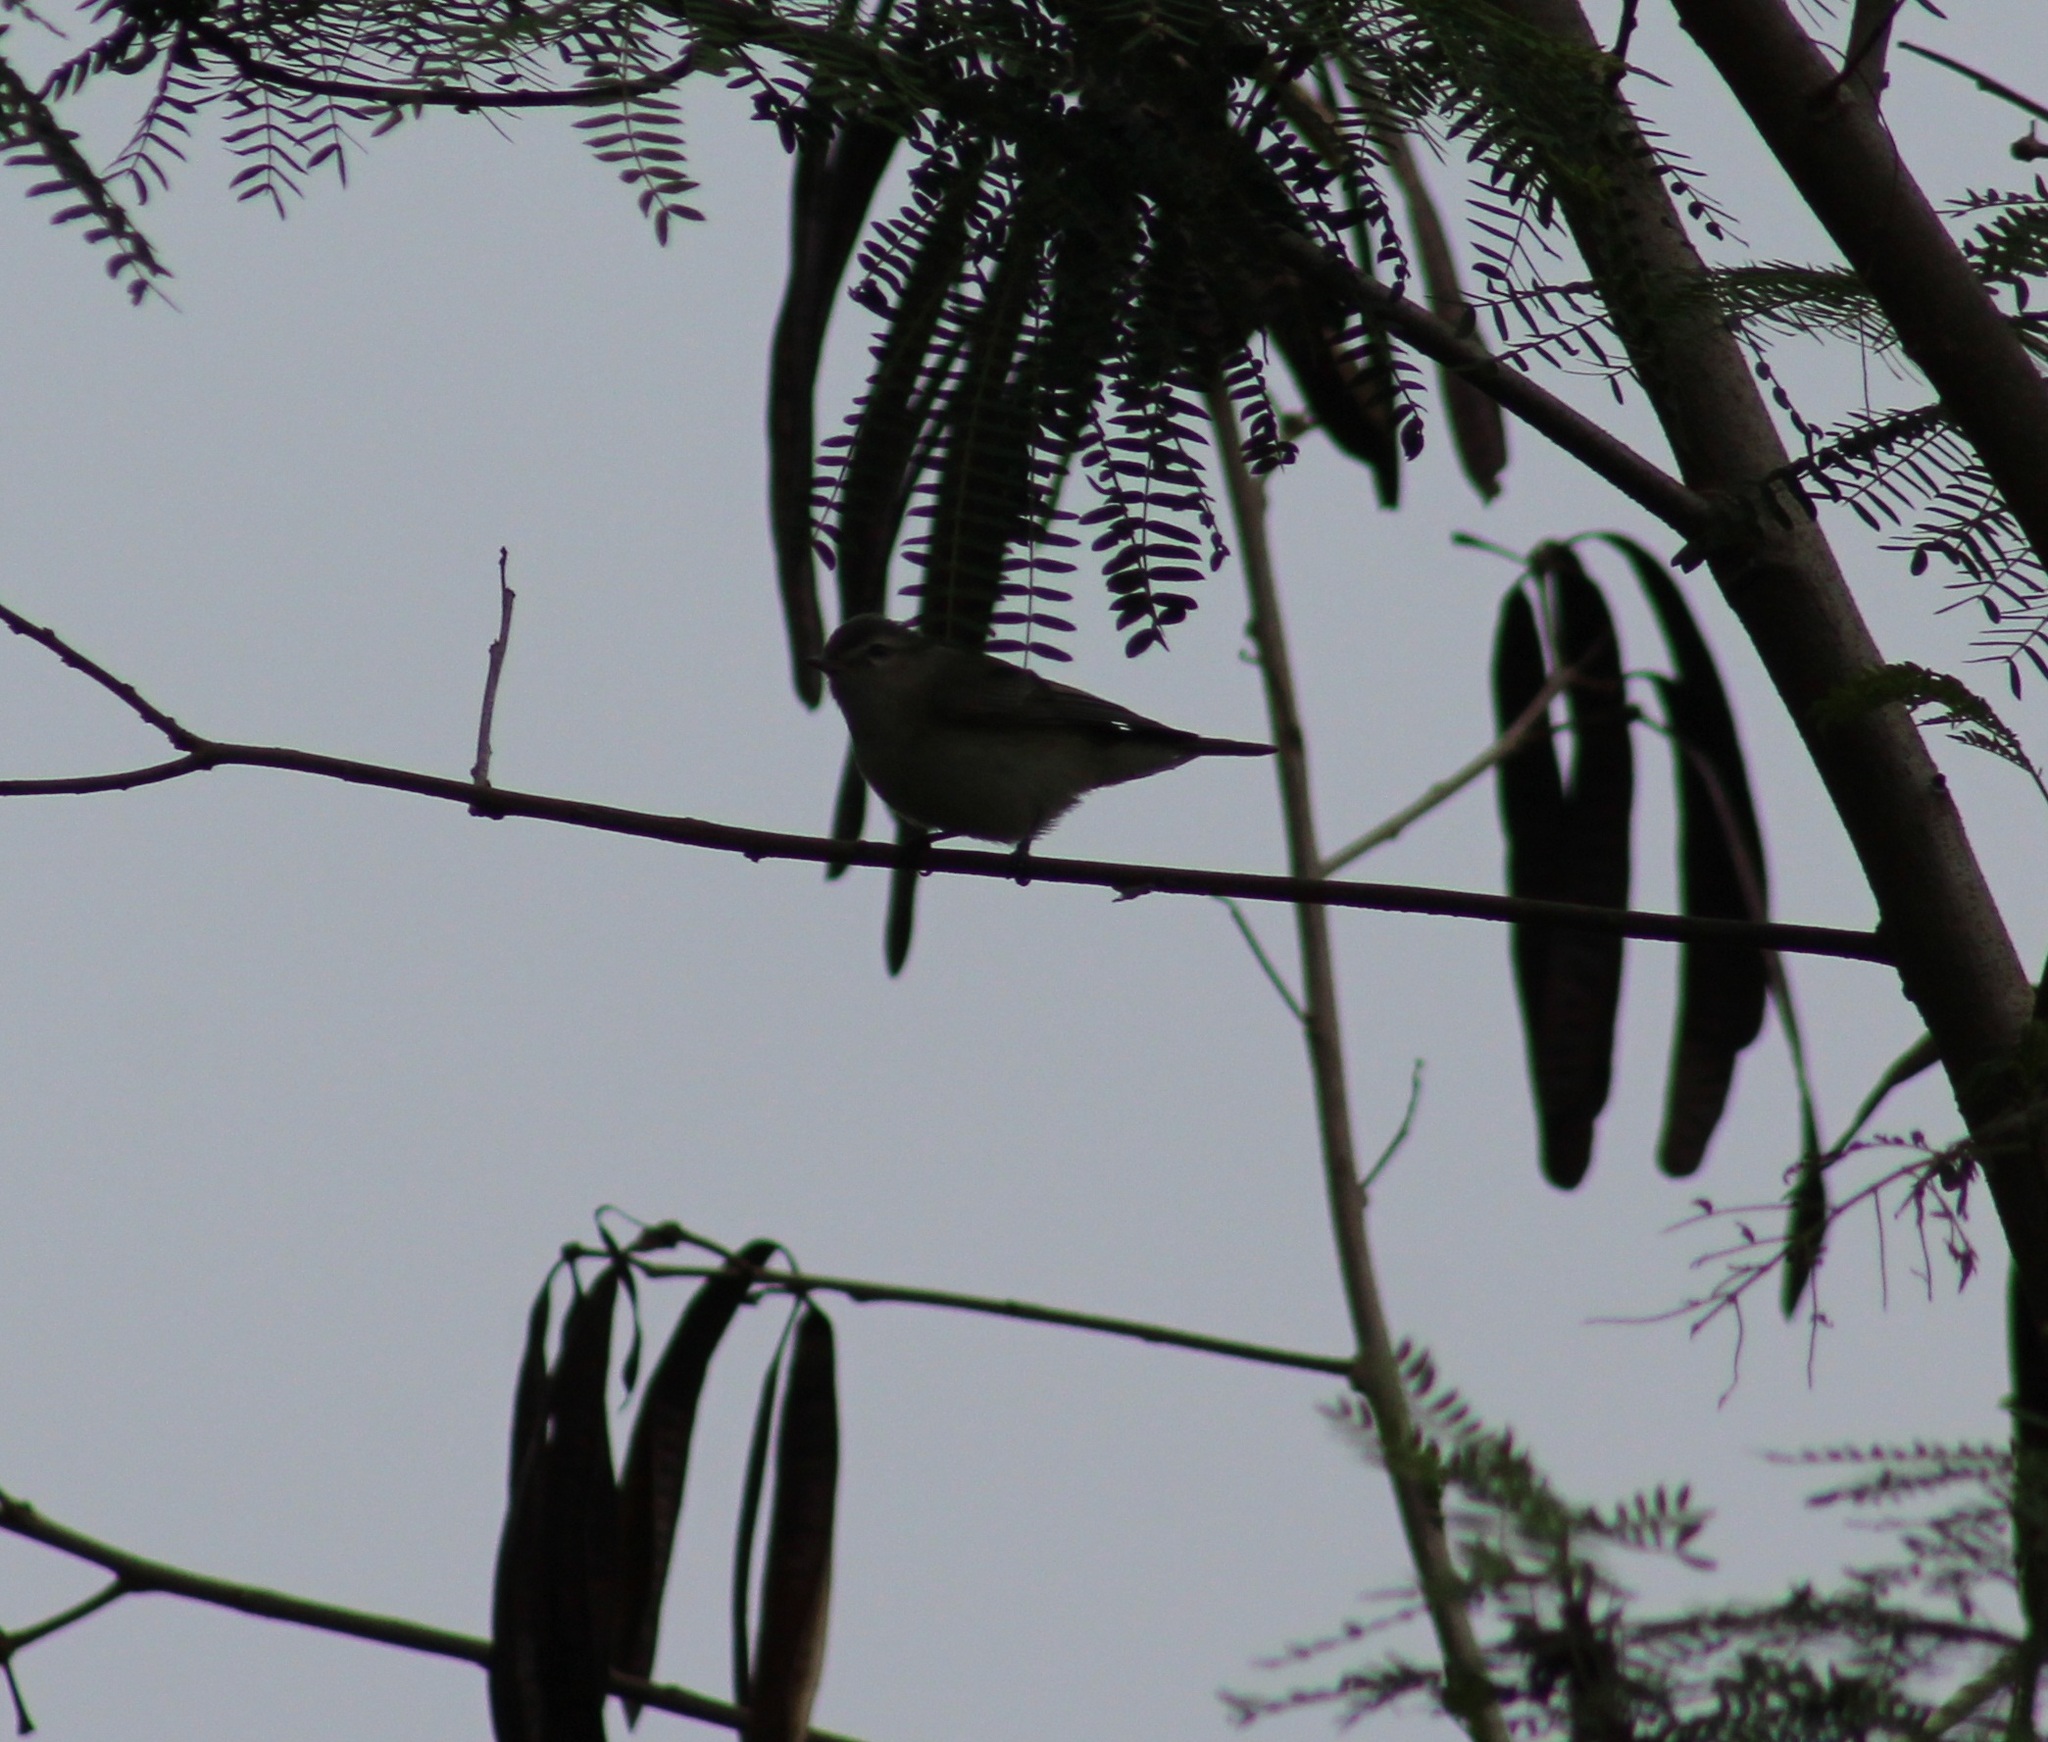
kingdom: Animalia
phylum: Chordata
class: Aves
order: Passeriformes
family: Vireonidae
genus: Vireo
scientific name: Vireo leucophrys
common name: Brown-capped vireo
